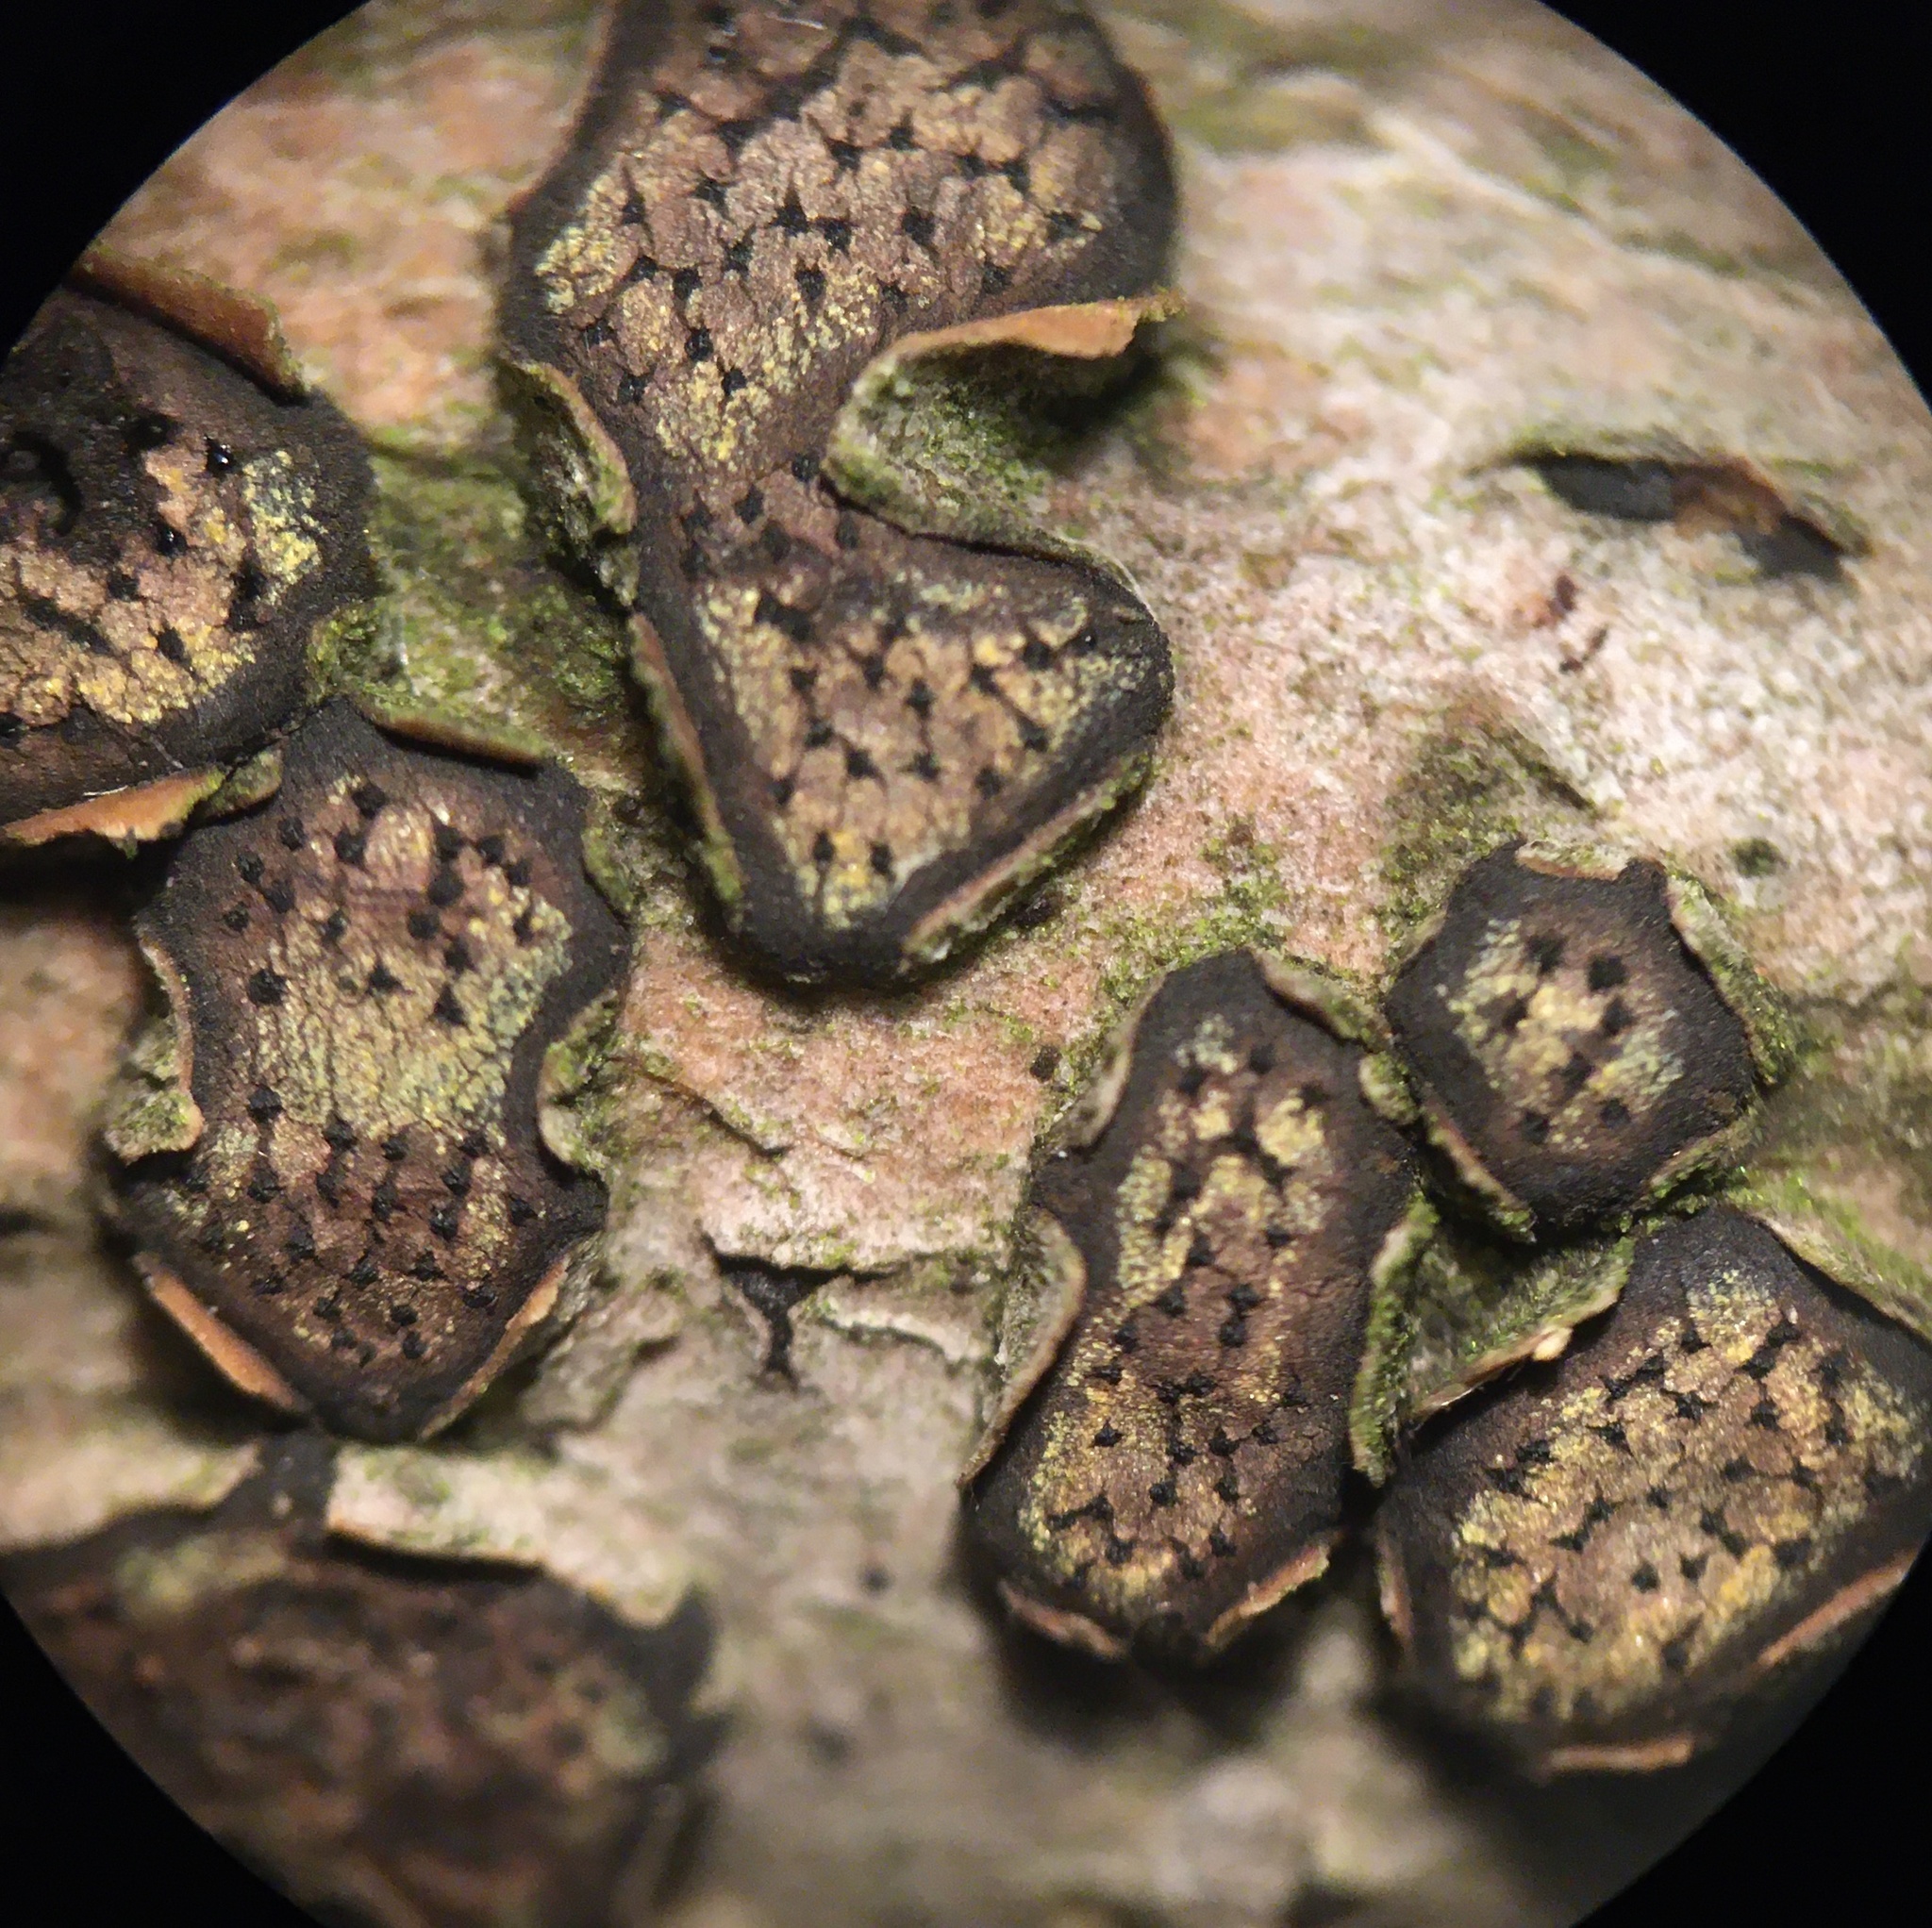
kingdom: Fungi
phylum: Ascomycota
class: Sordariomycetes
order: Xylariales
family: Diatrypaceae
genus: Diatrype
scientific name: Diatrype virescens
